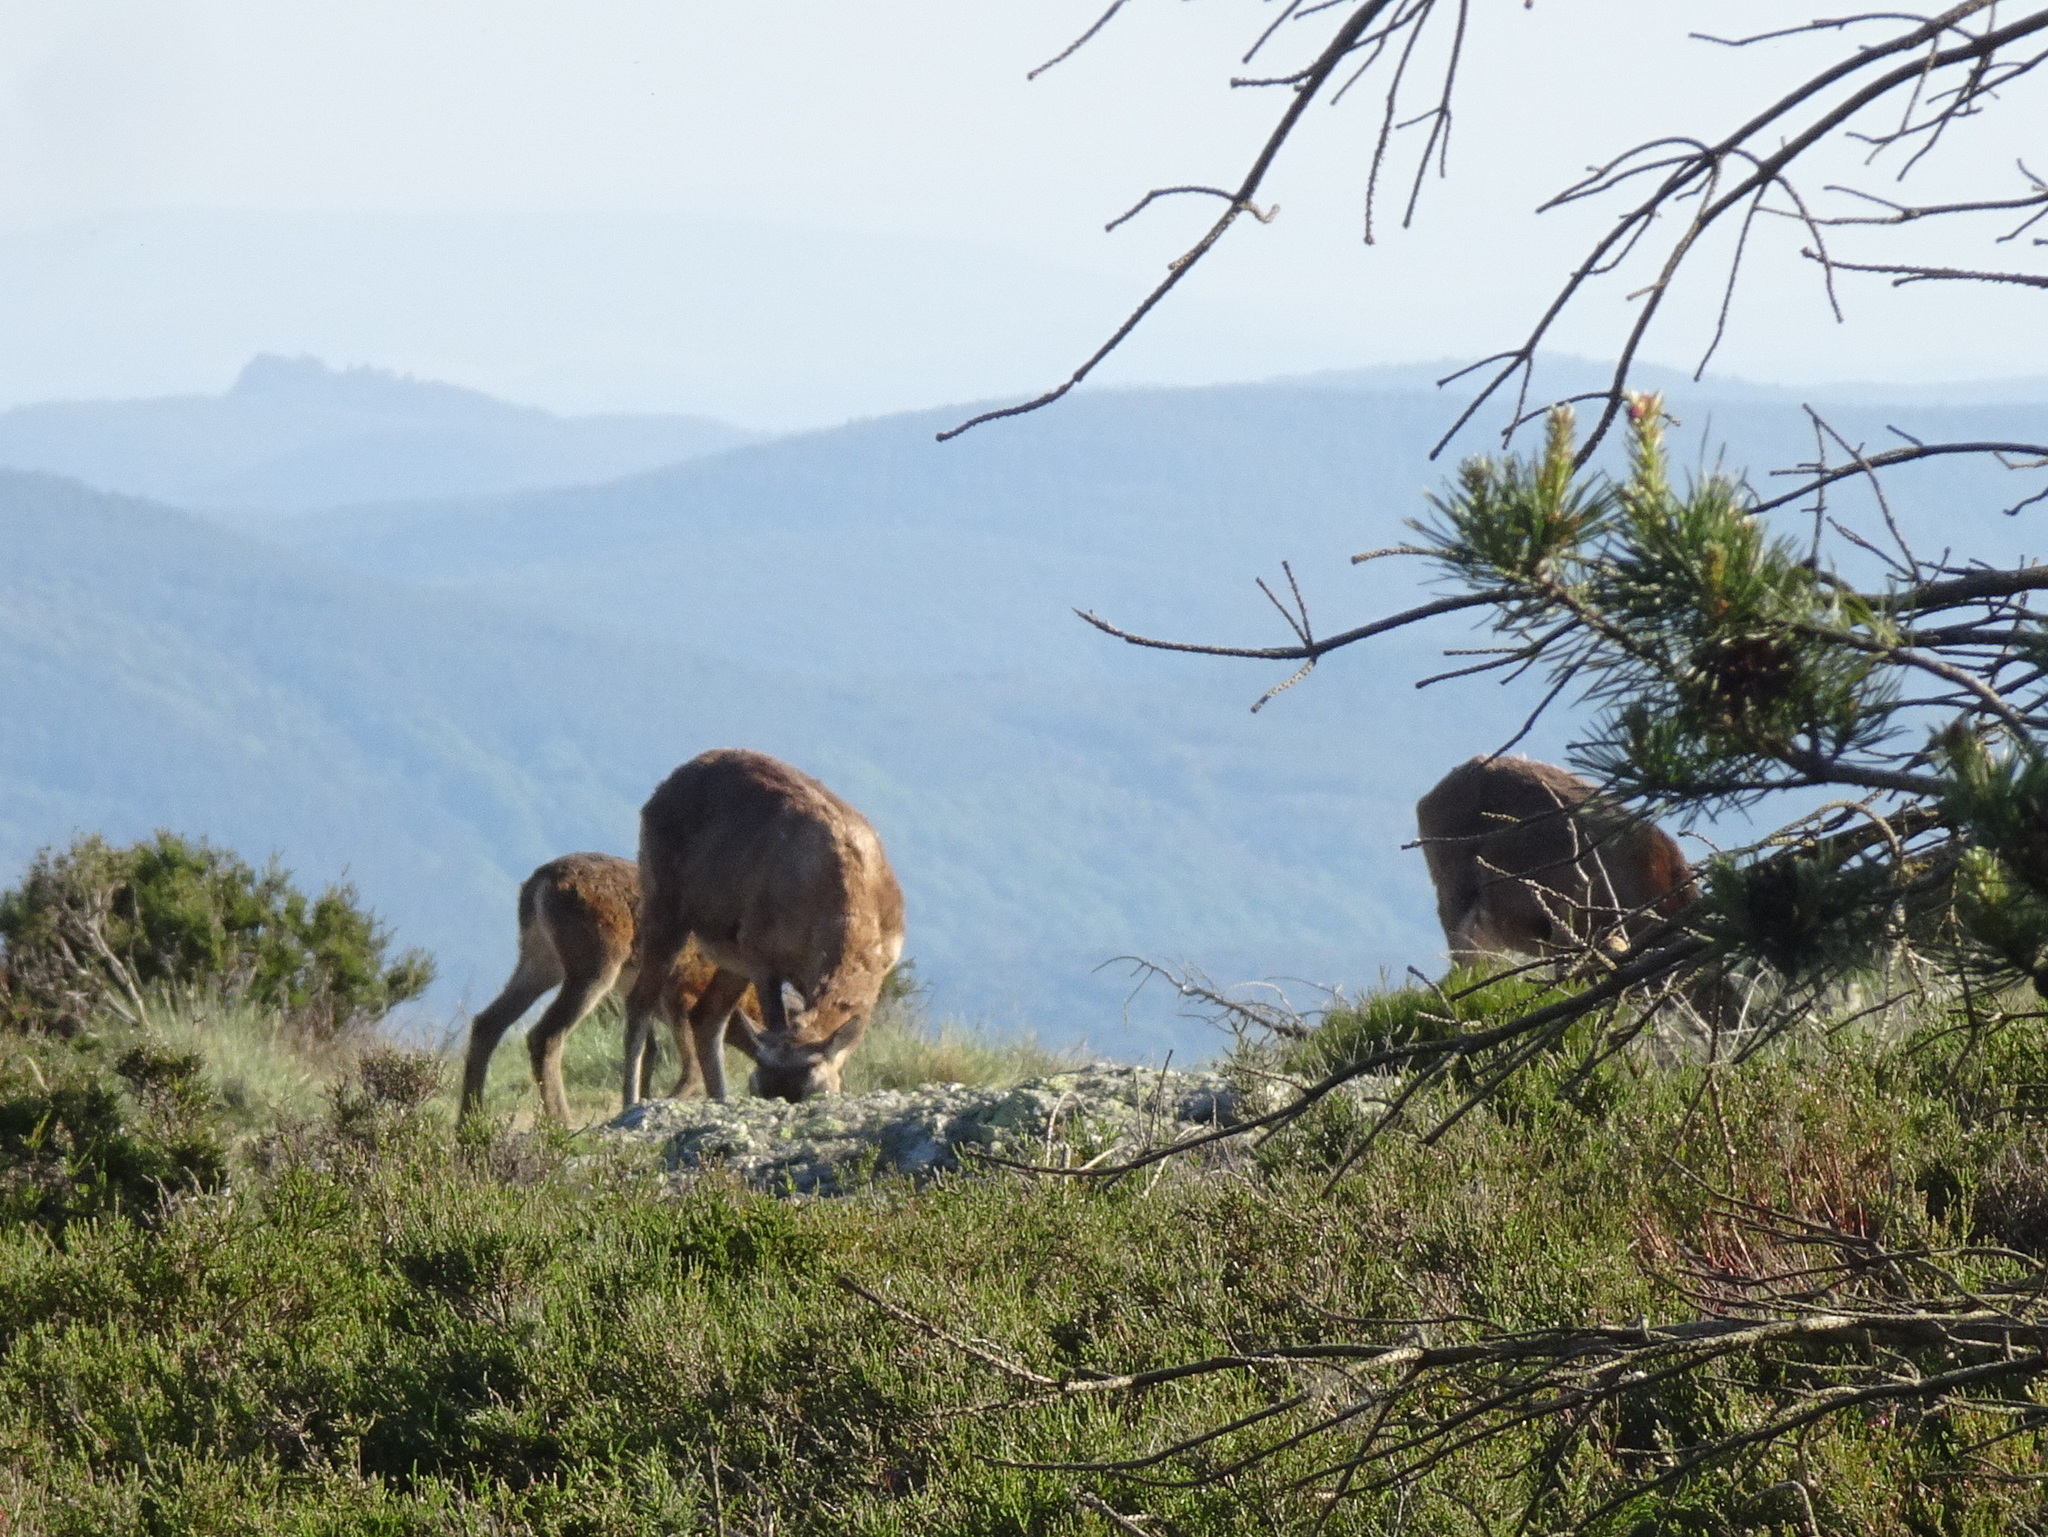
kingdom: Animalia
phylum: Chordata
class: Mammalia
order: Artiodactyla
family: Bovidae
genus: Ovis
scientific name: Ovis aries
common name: Domestic sheep
